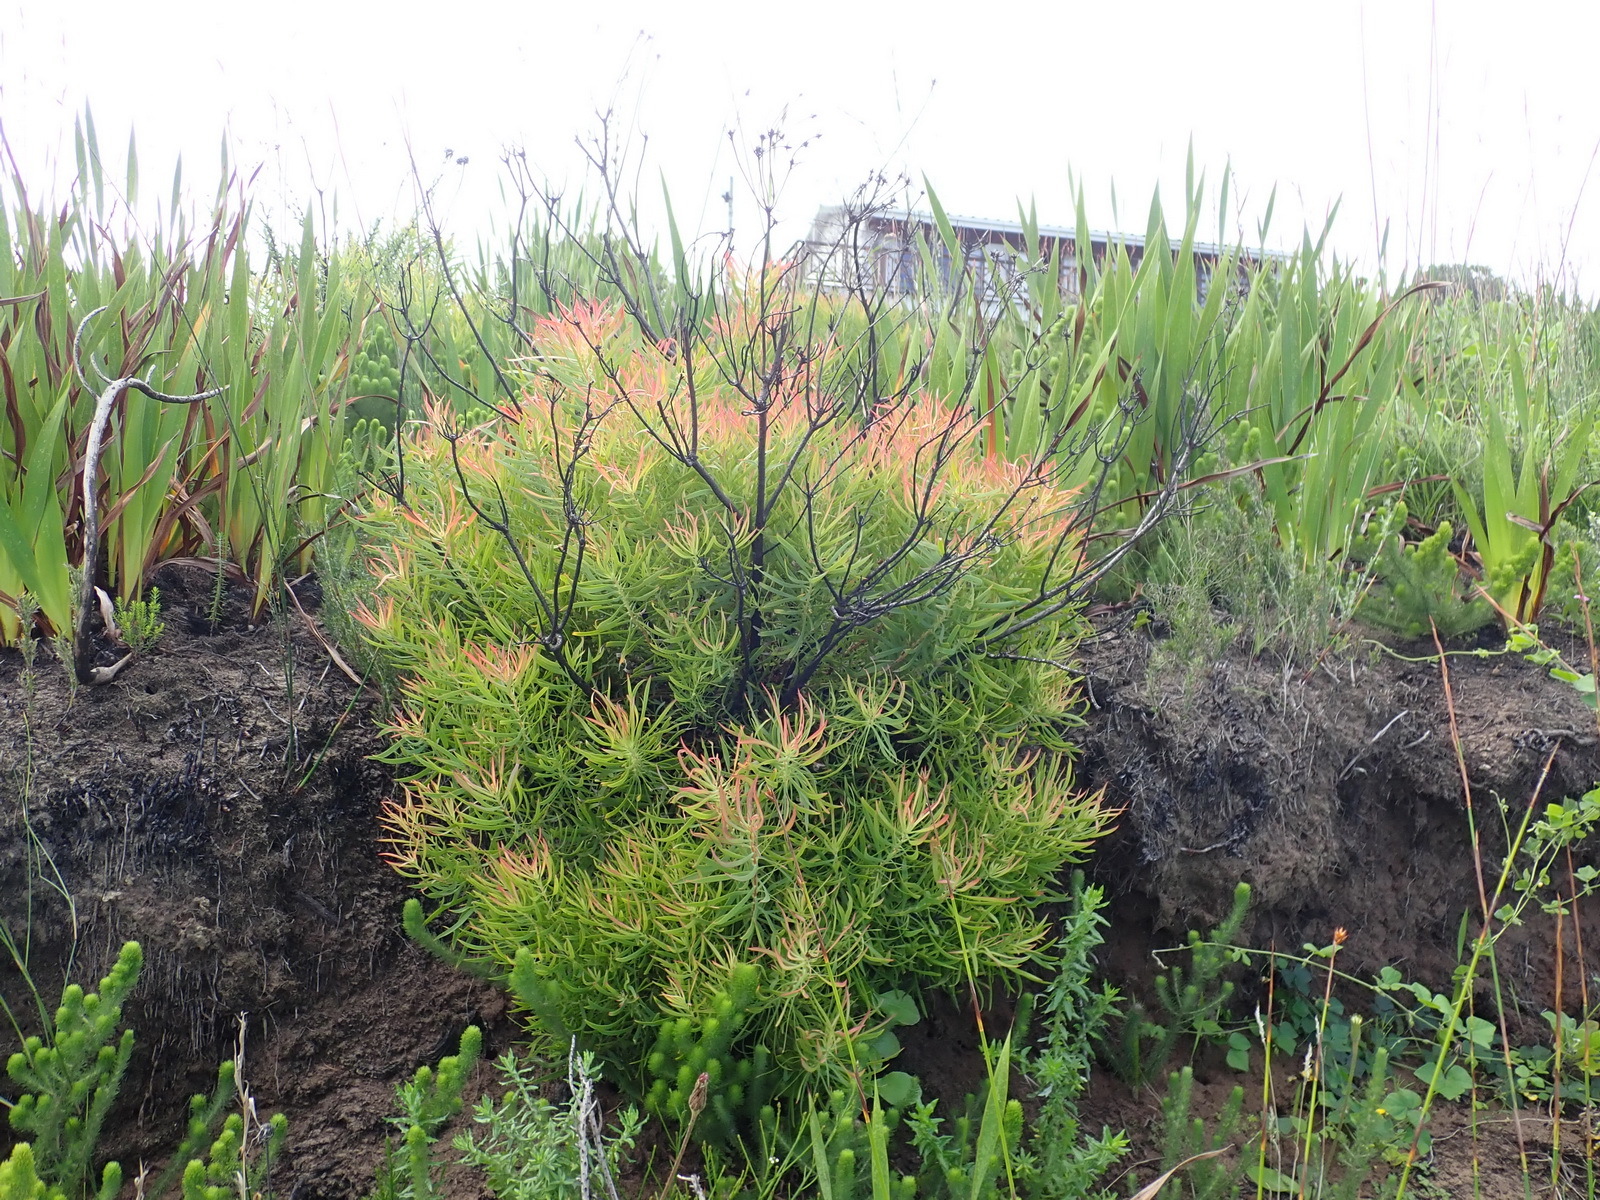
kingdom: Plantae
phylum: Tracheophyta
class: Magnoliopsida
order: Proteales
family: Proteaceae
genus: Leucadendron
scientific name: Leucadendron salignum
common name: Common sunshine conebush
